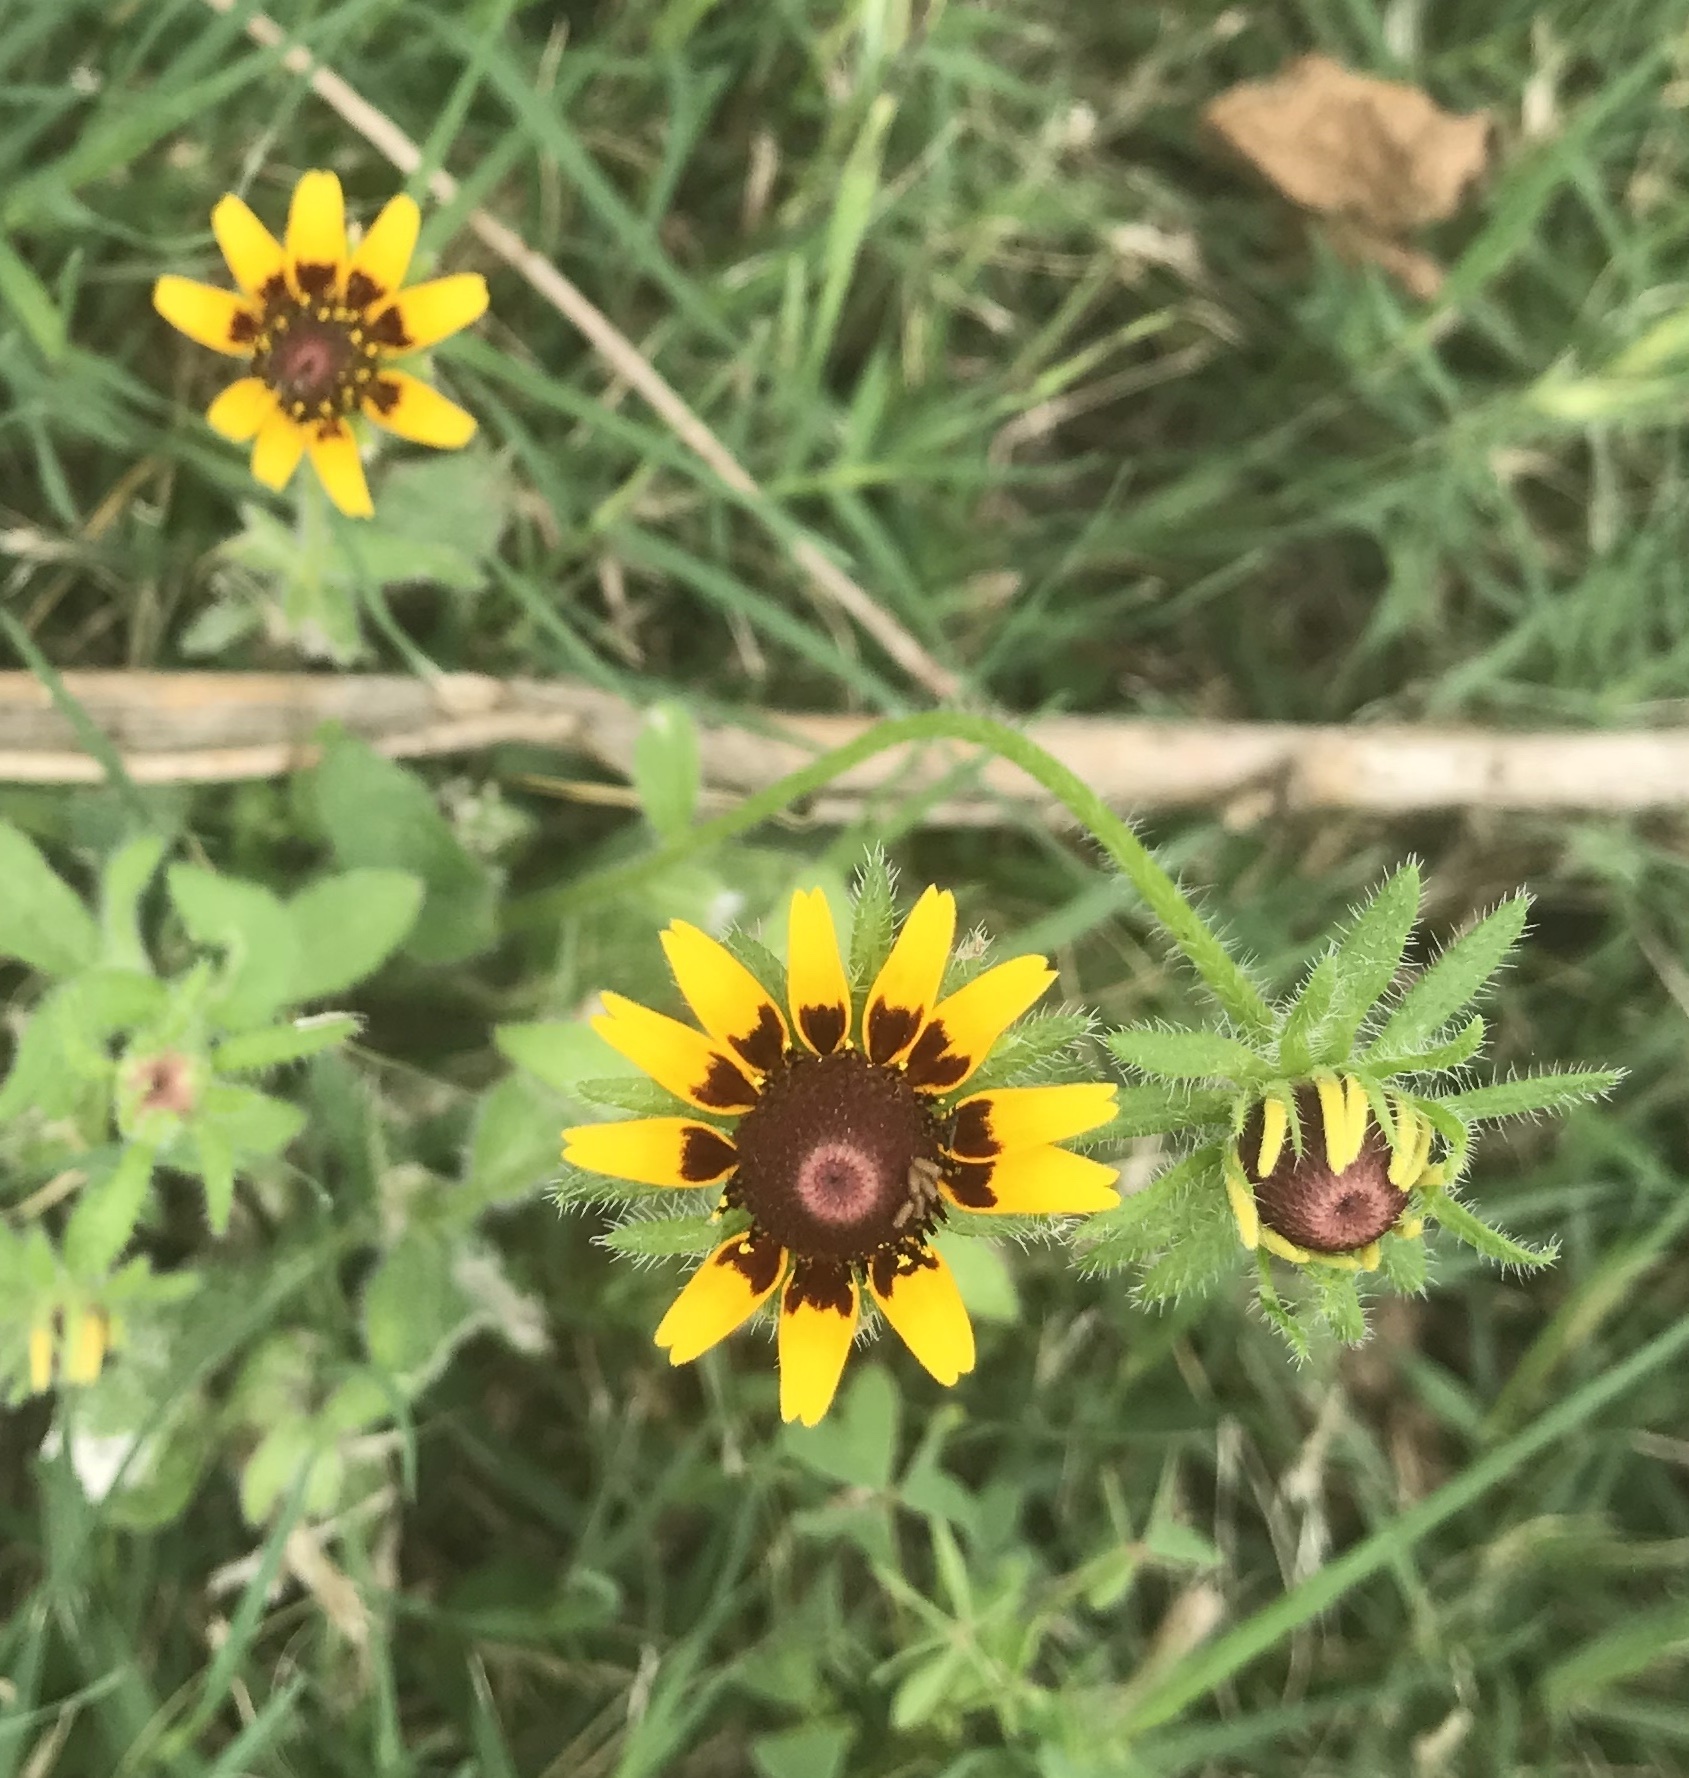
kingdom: Plantae
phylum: Tracheophyta
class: Magnoliopsida
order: Asterales
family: Asteraceae
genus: Rudbeckia
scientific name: Rudbeckia hirta
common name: Black-eyed-susan
